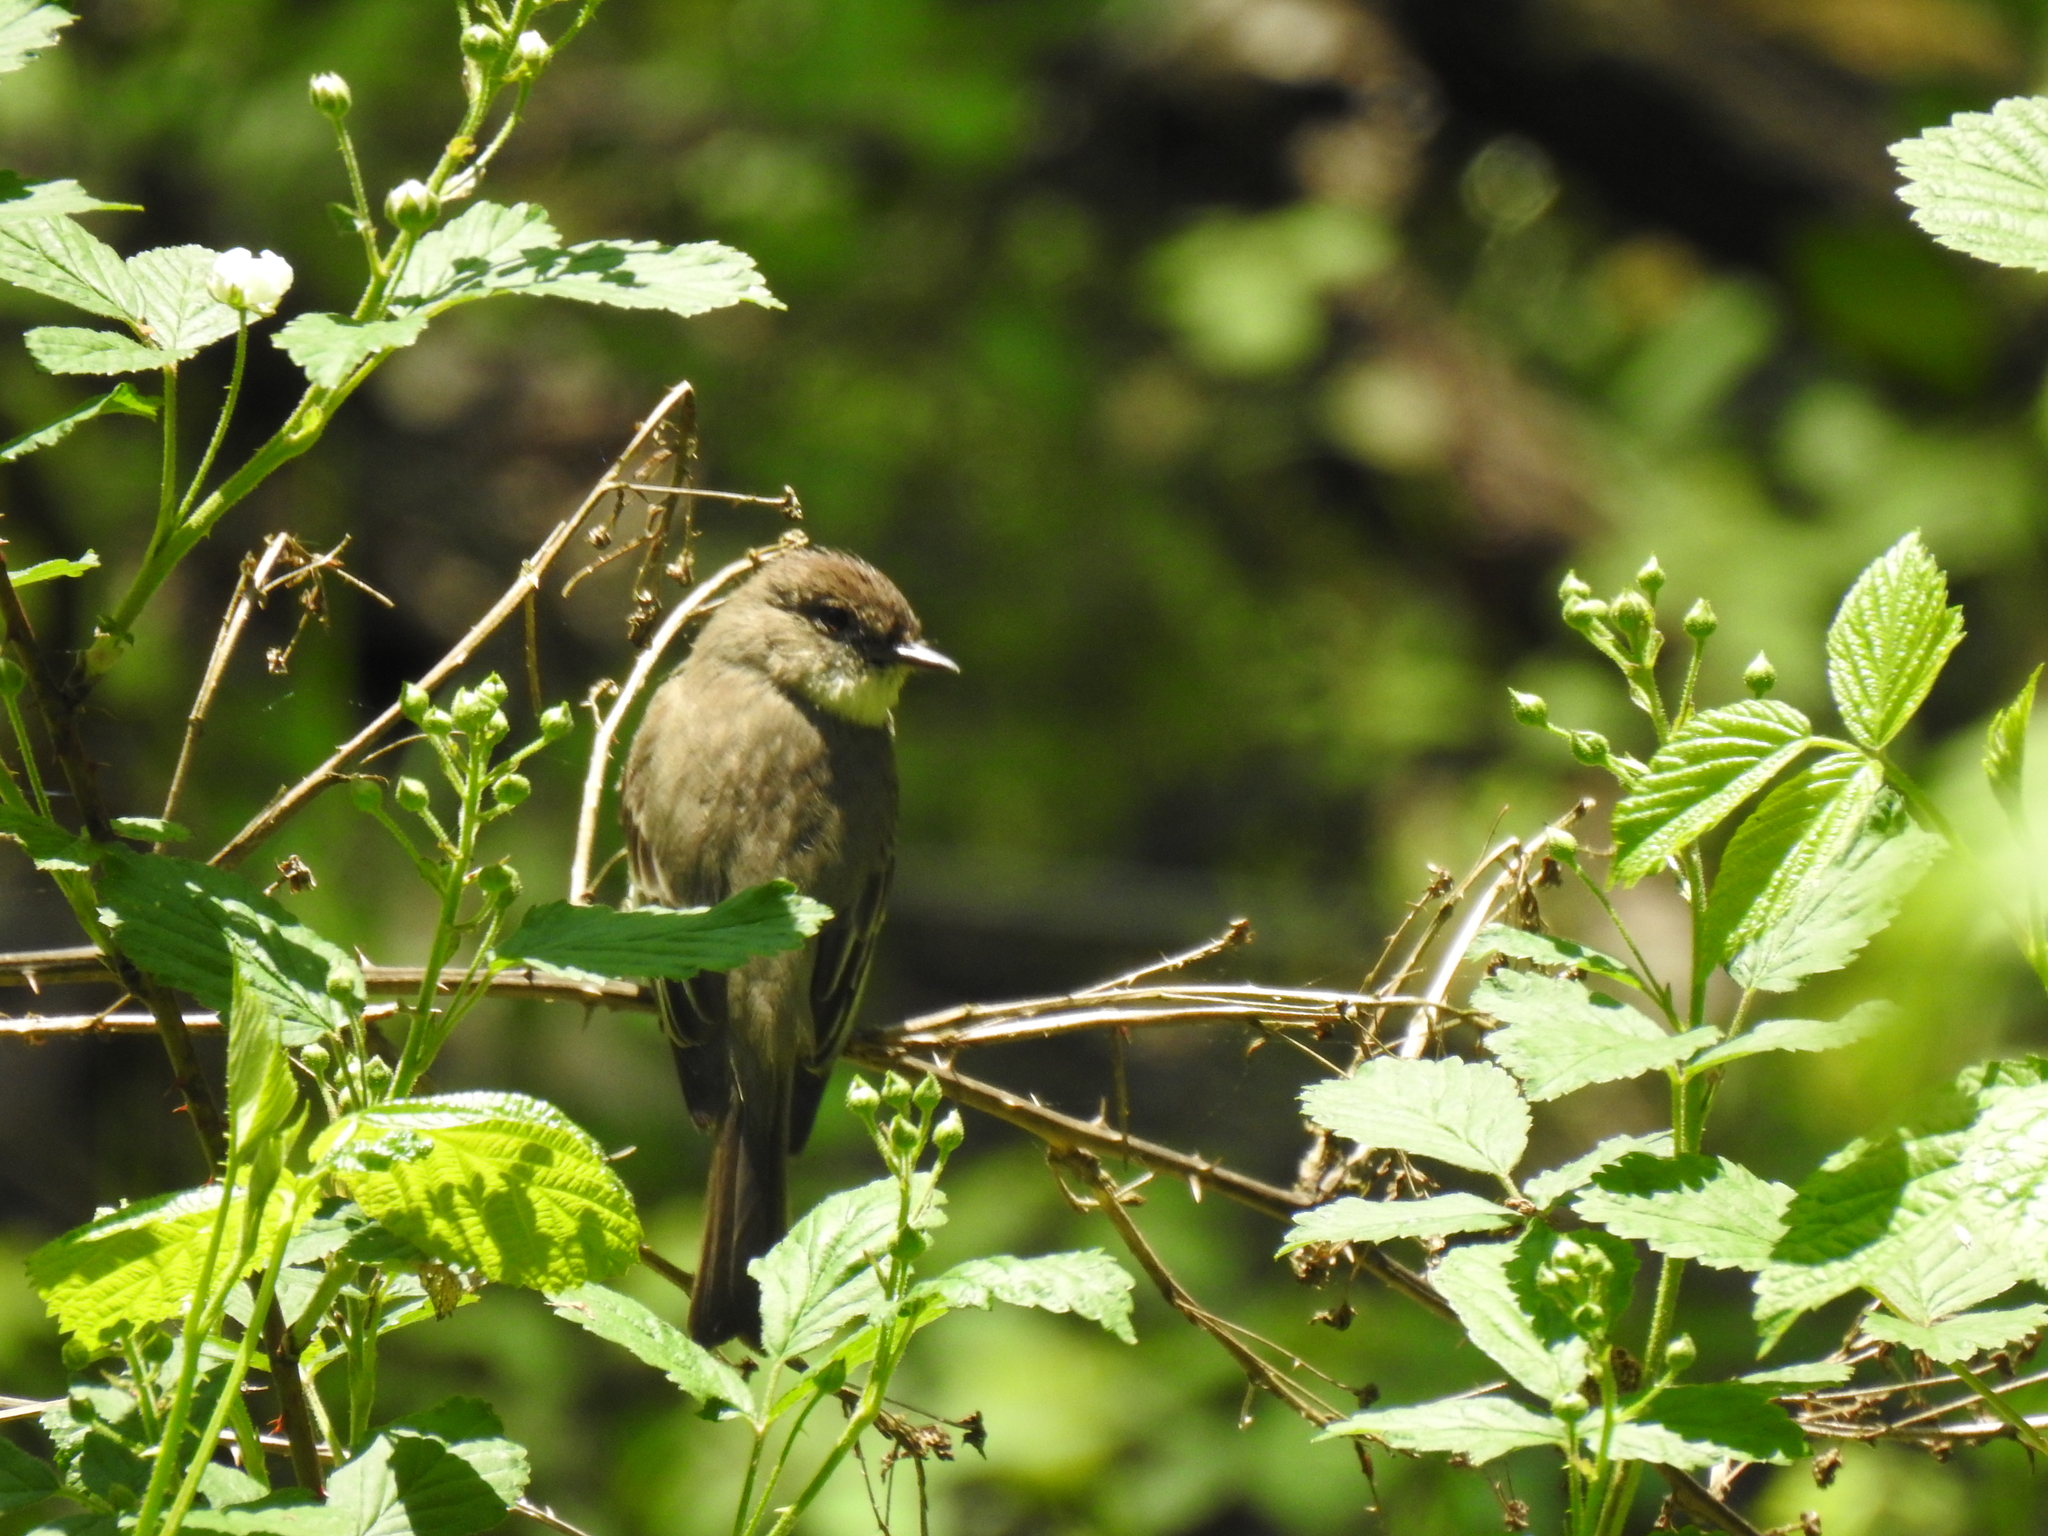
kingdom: Animalia
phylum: Chordata
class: Aves
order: Passeriformes
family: Tyrannidae
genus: Sayornis
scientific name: Sayornis phoebe
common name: Eastern phoebe
